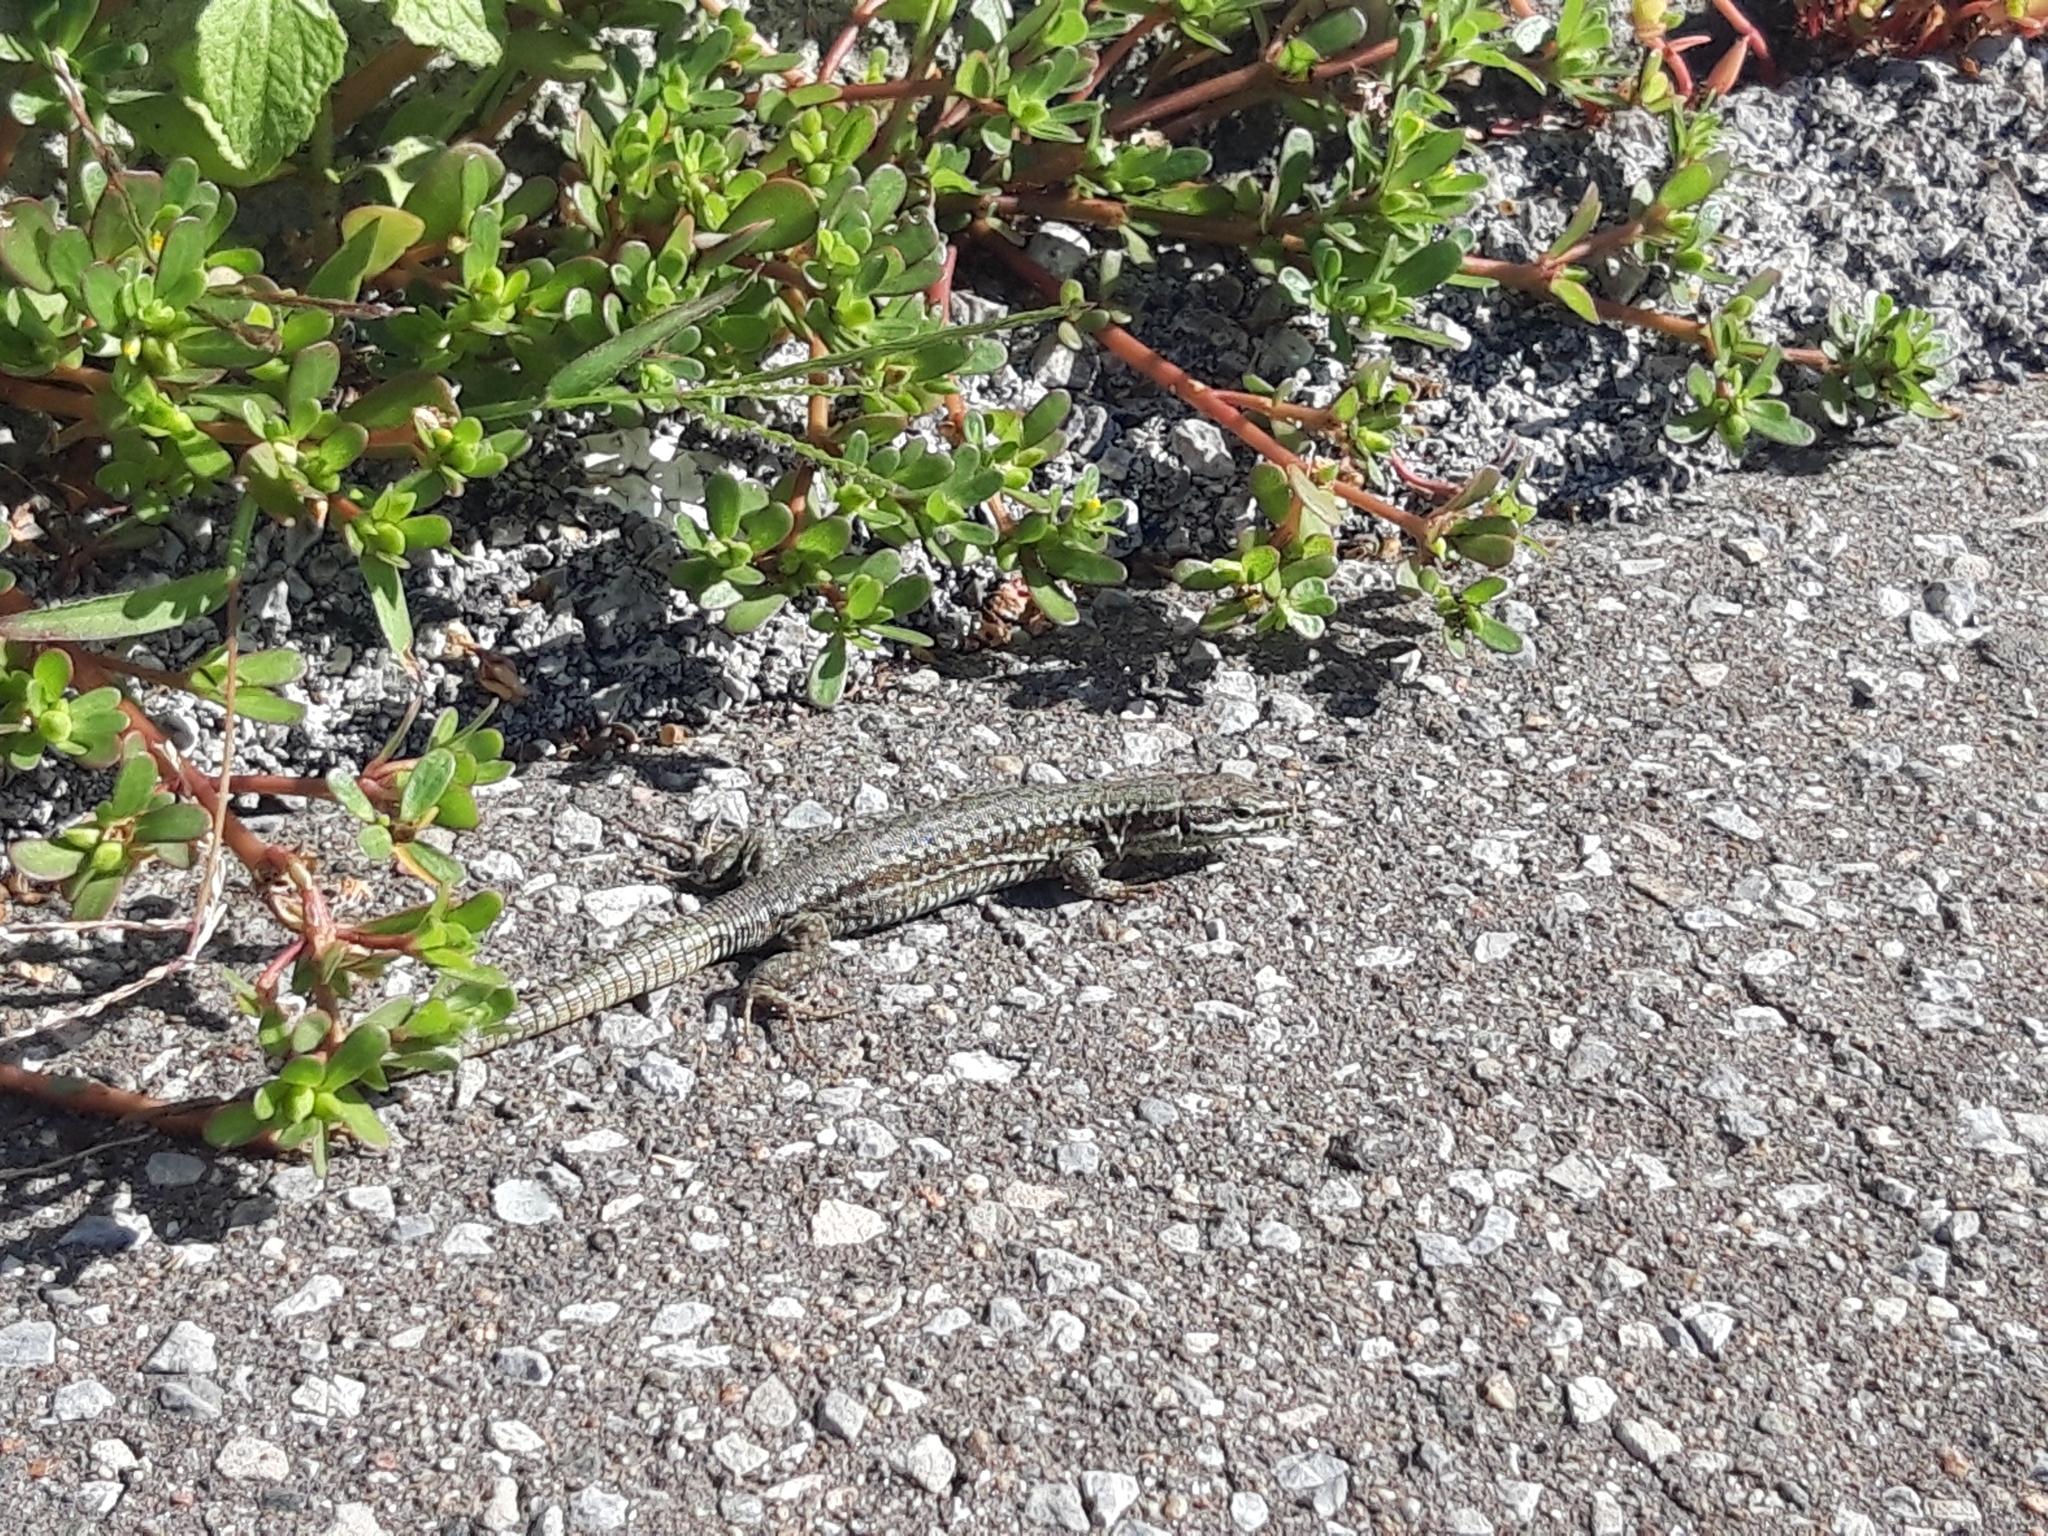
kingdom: Animalia
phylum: Chordata
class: Squamata
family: Lacertidae
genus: Podarcis
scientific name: Podarcis muralis
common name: Common wall lizard
